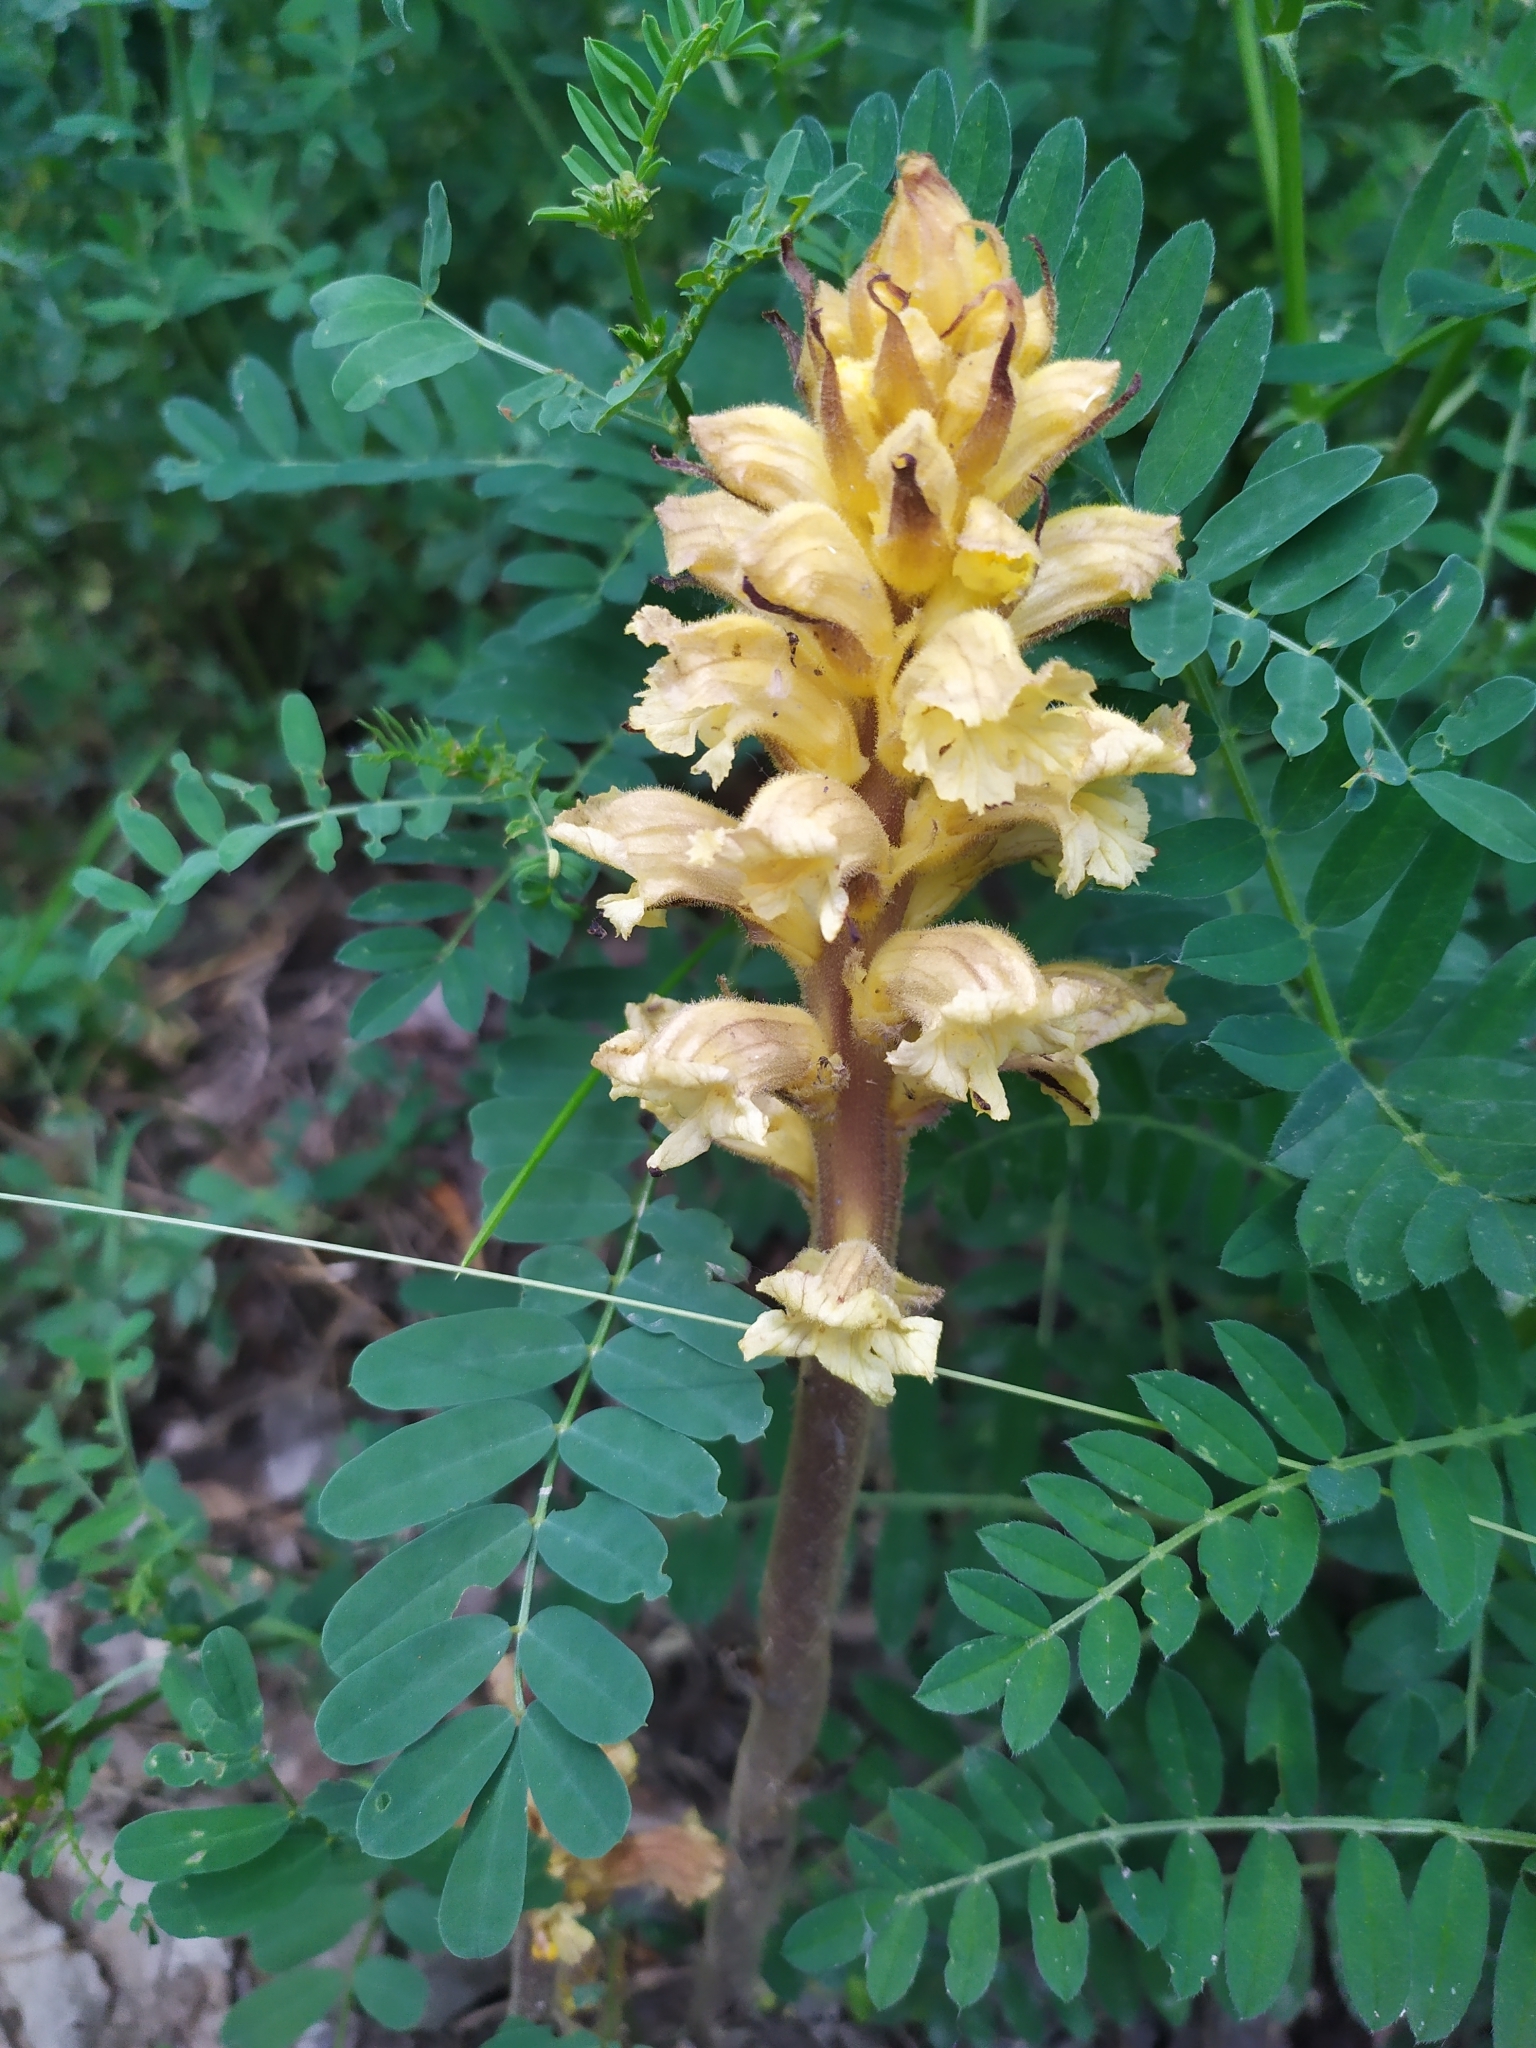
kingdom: Plantae
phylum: Tracheophyta
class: Magnoliopsida
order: Lamiales
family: Orobanchaceae
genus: Orobanche
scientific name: Orobanche lutea
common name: Yellow broomrape
